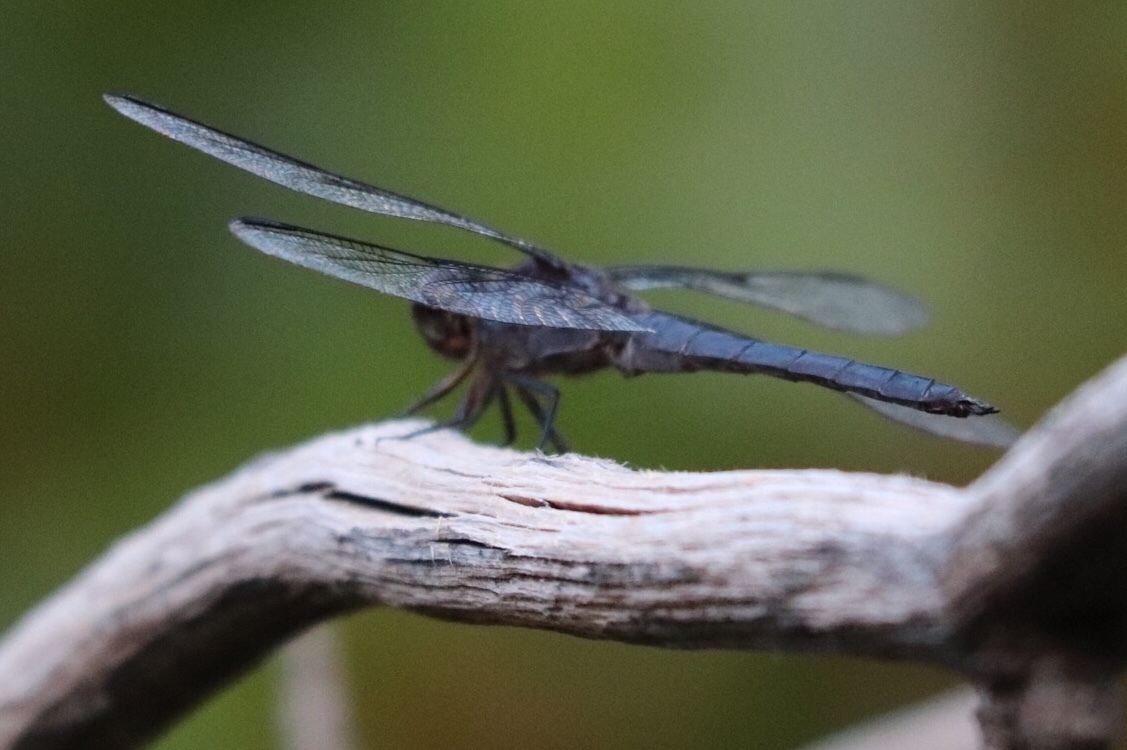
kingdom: Animalia
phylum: Arthropoda
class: Insecta
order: Odonata
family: Libellulidae
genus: Libellula
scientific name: Libellula incesta
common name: Slaty skimmer
